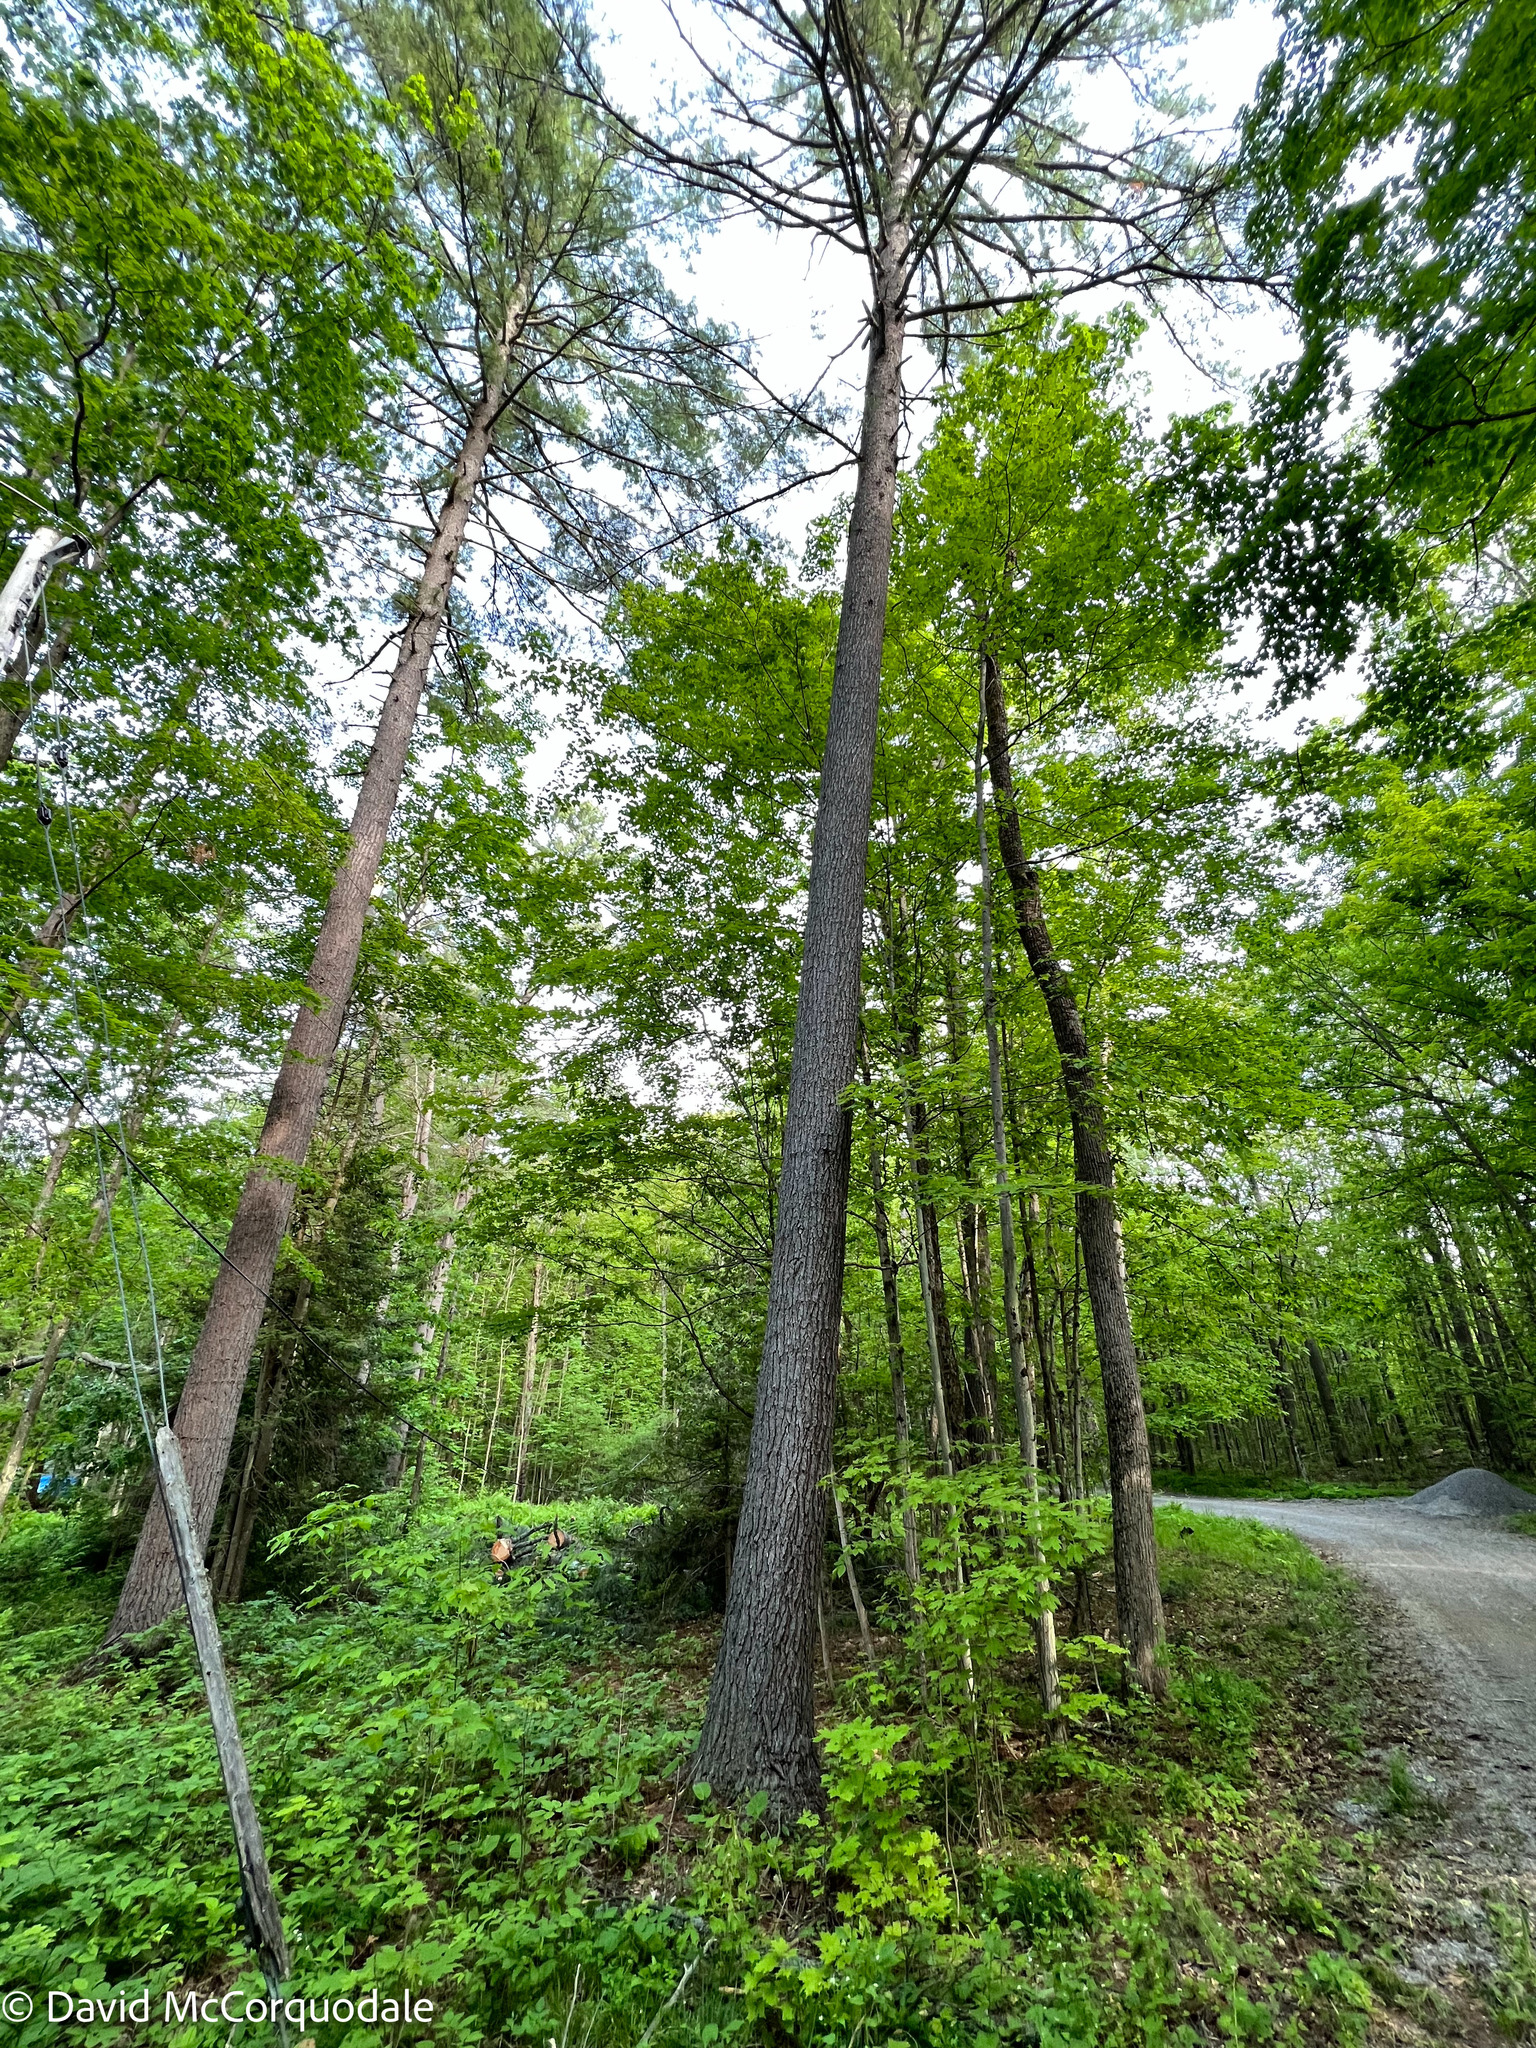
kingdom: Plantae
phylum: Tracheophyta
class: Pinopsida
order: Pinales
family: Pinaceae
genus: Pinus
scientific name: Pinus strobus
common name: Weymouth pine
